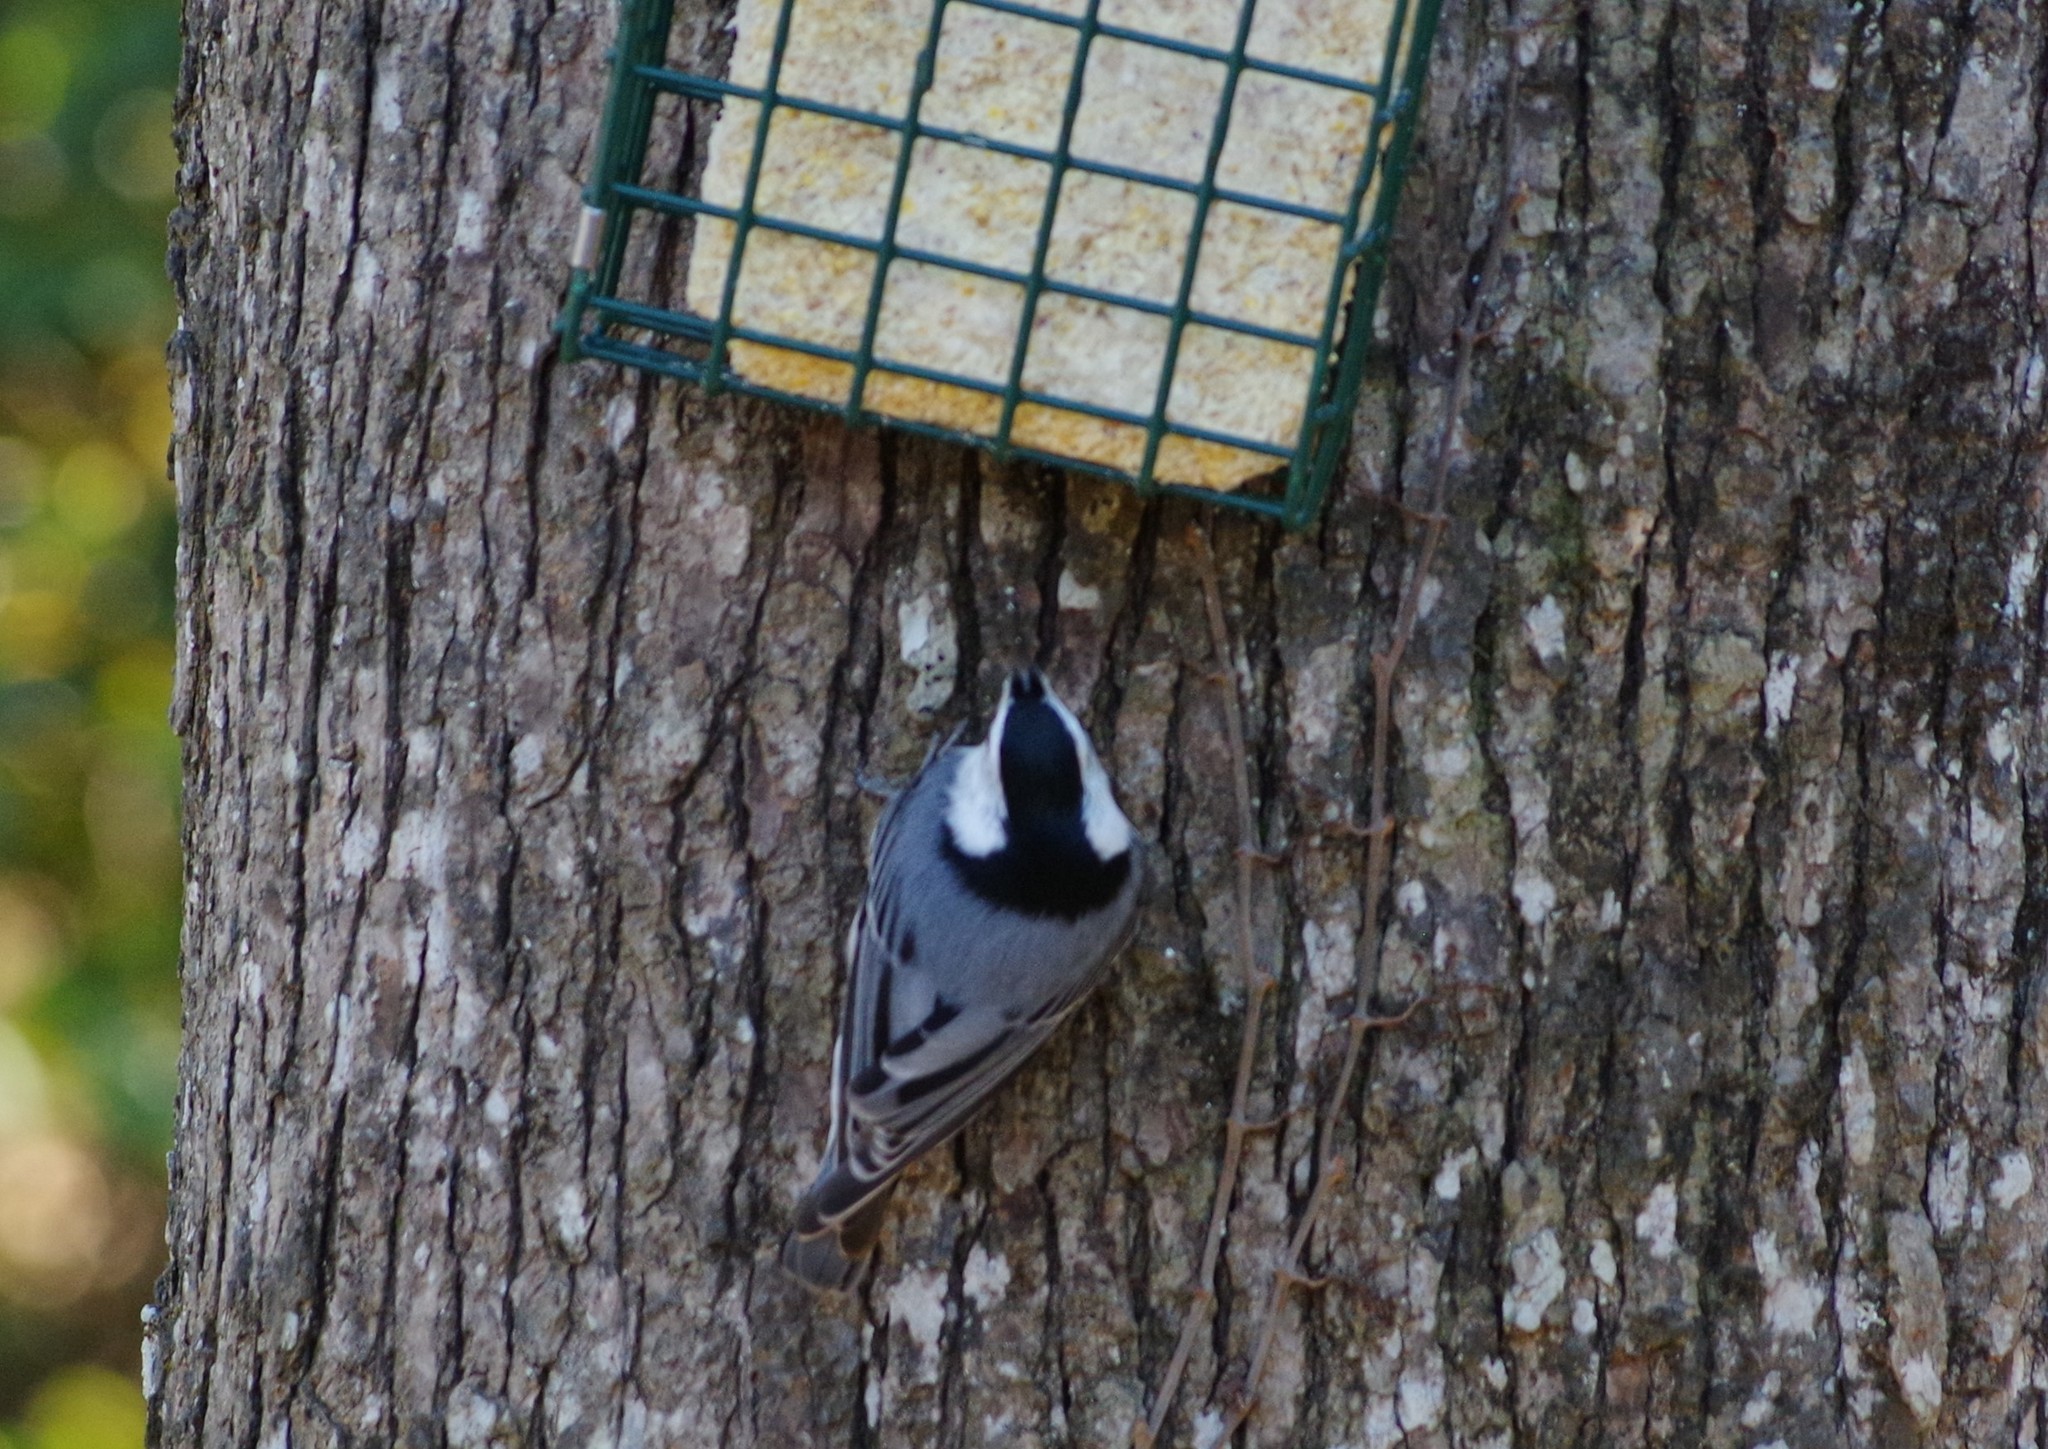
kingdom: Animalia
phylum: Chordata
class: Aves
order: Passeriformes
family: Sittidae
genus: Sitta
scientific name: Sitta carolinensis
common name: White-breasted nuthatch
